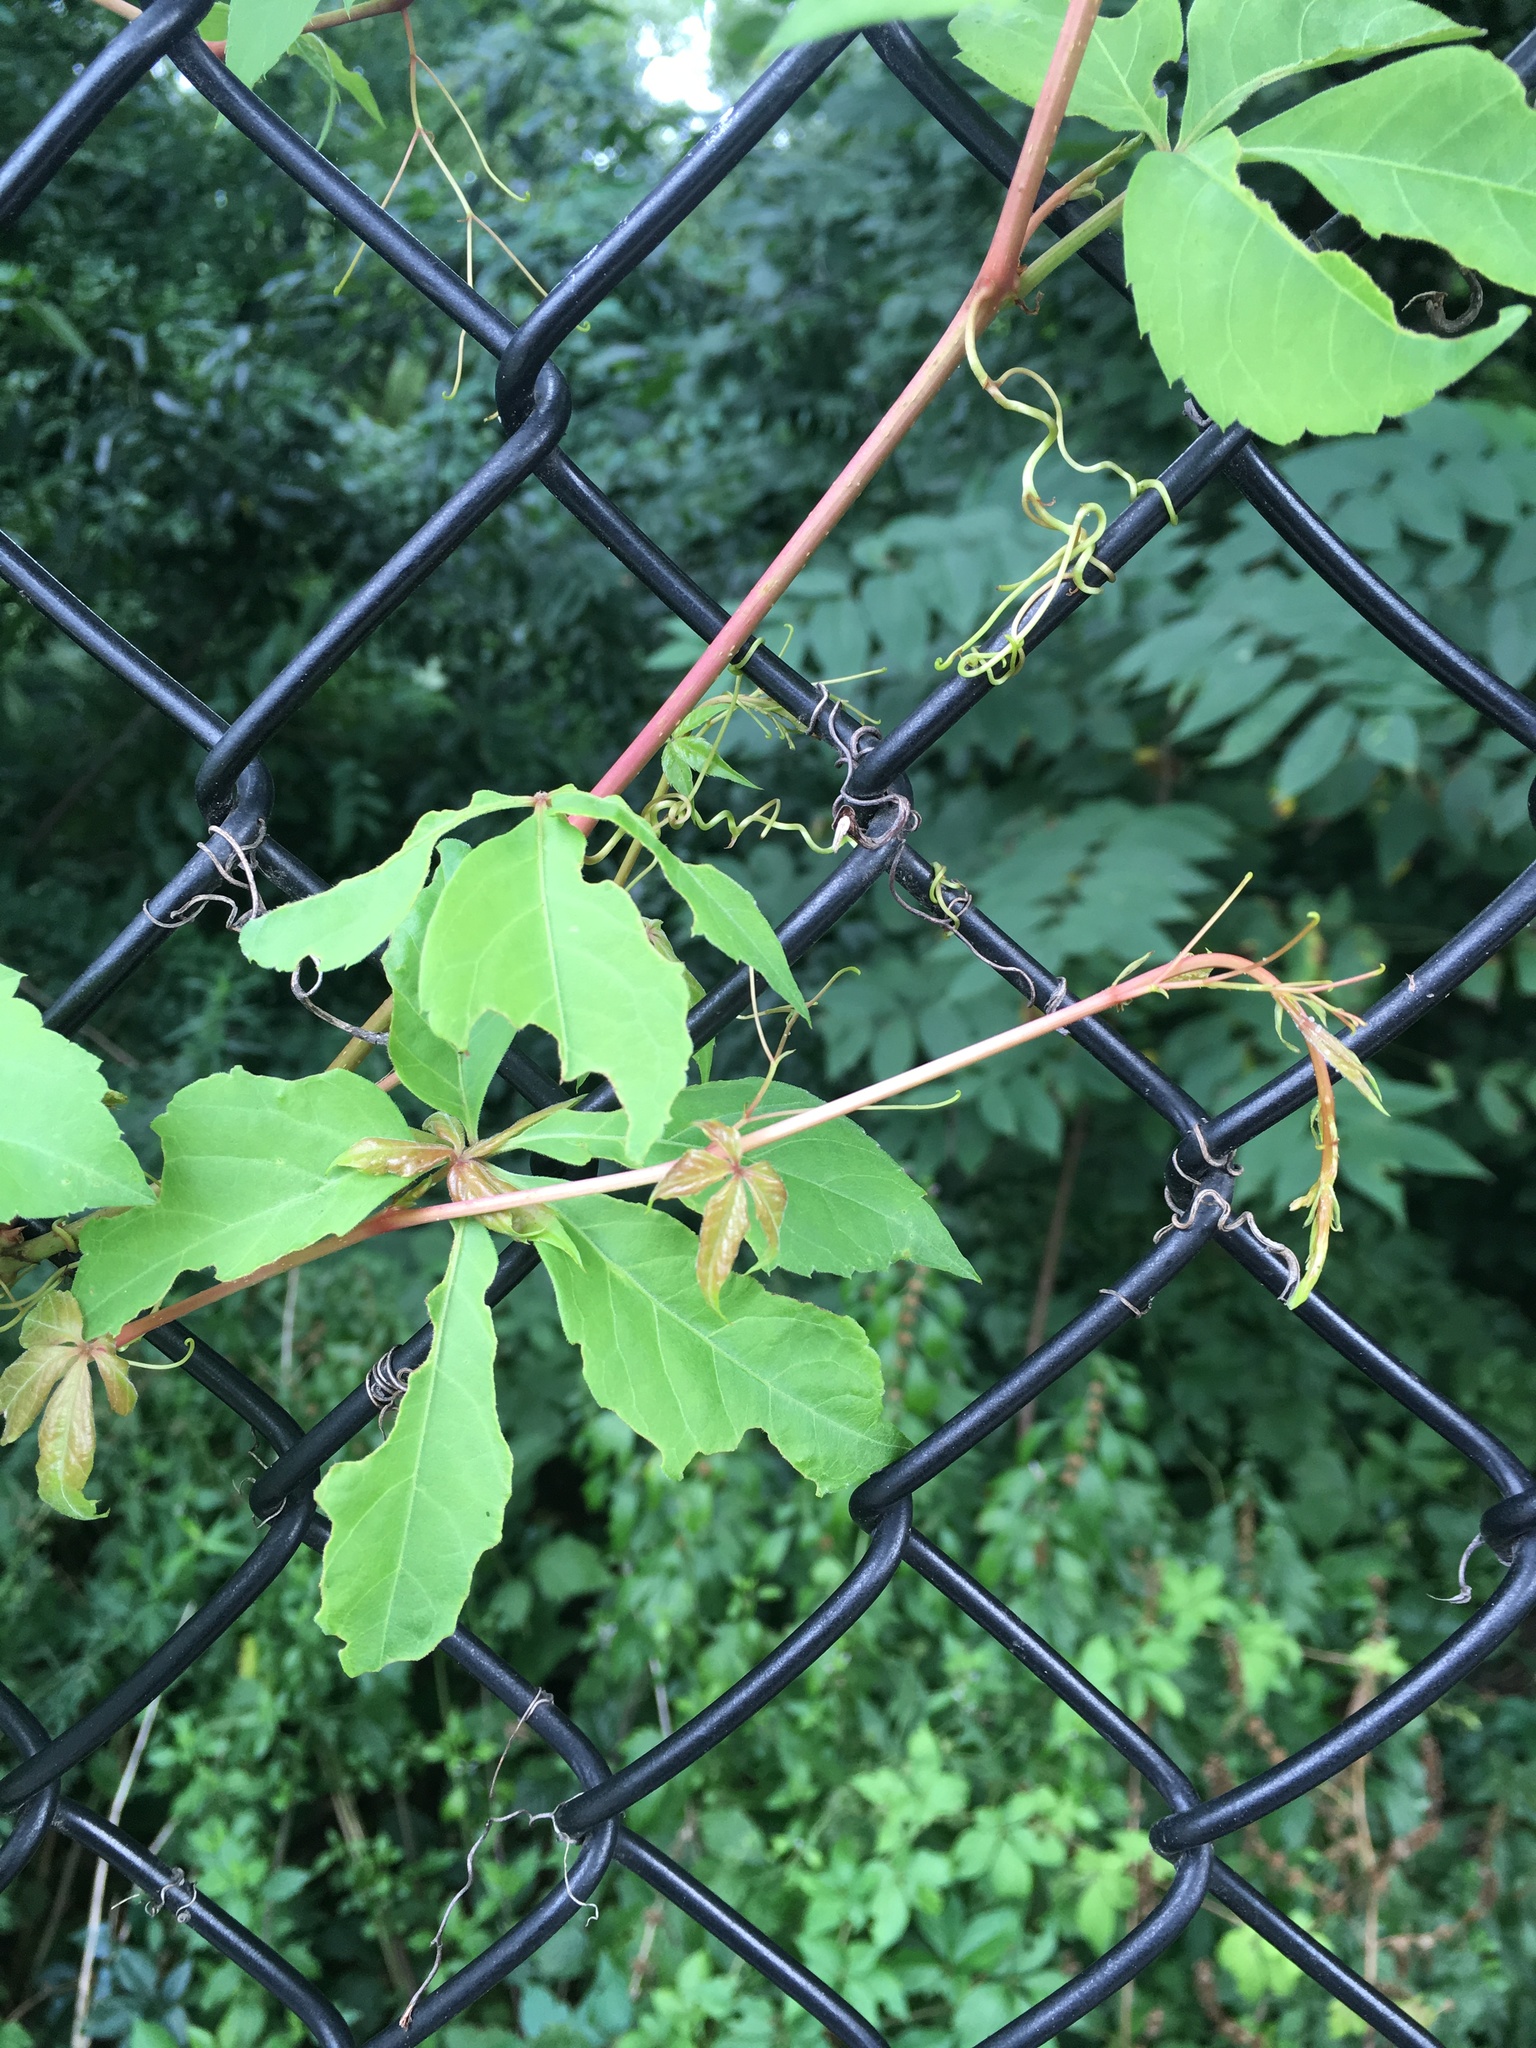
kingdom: Plantae
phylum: Tracheophyta
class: Magnoliopsida
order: Vitales
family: Vitaceae
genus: Parthenocissus
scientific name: Parthenocissus quinquefolia
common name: Virginia-creeper
